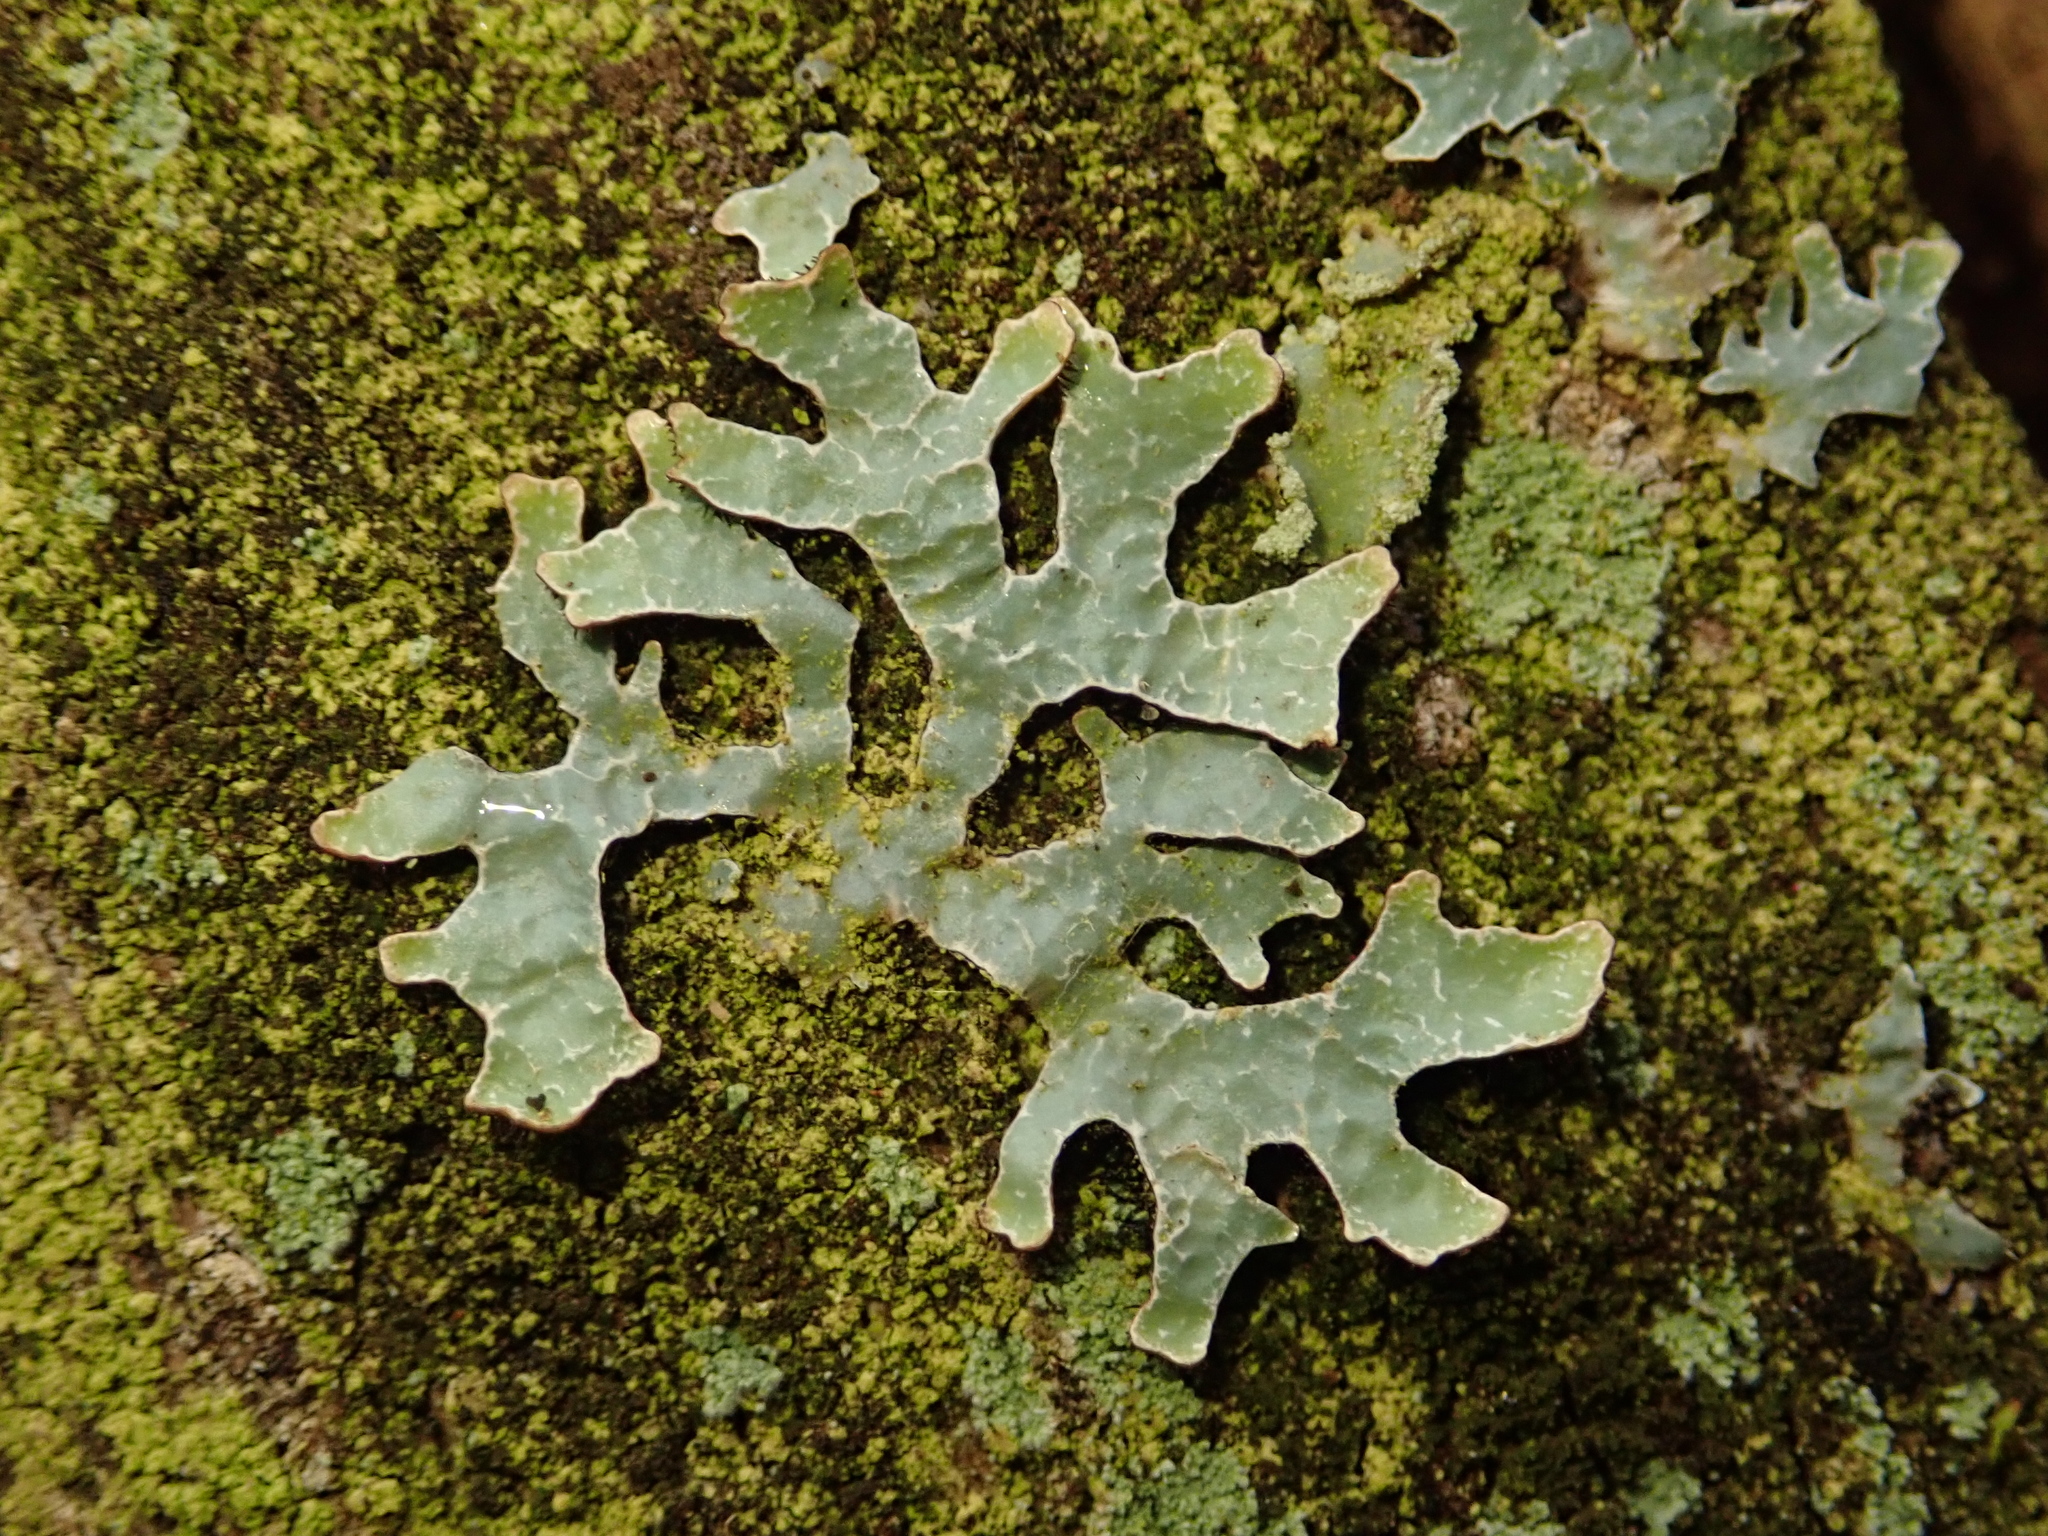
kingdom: Fungi
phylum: Ascomycota
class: Lecanoromycetes
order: Lecanorales
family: Parmeliaceae
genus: Parmelia
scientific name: Parmelia sulcata
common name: Netted shield lichen
